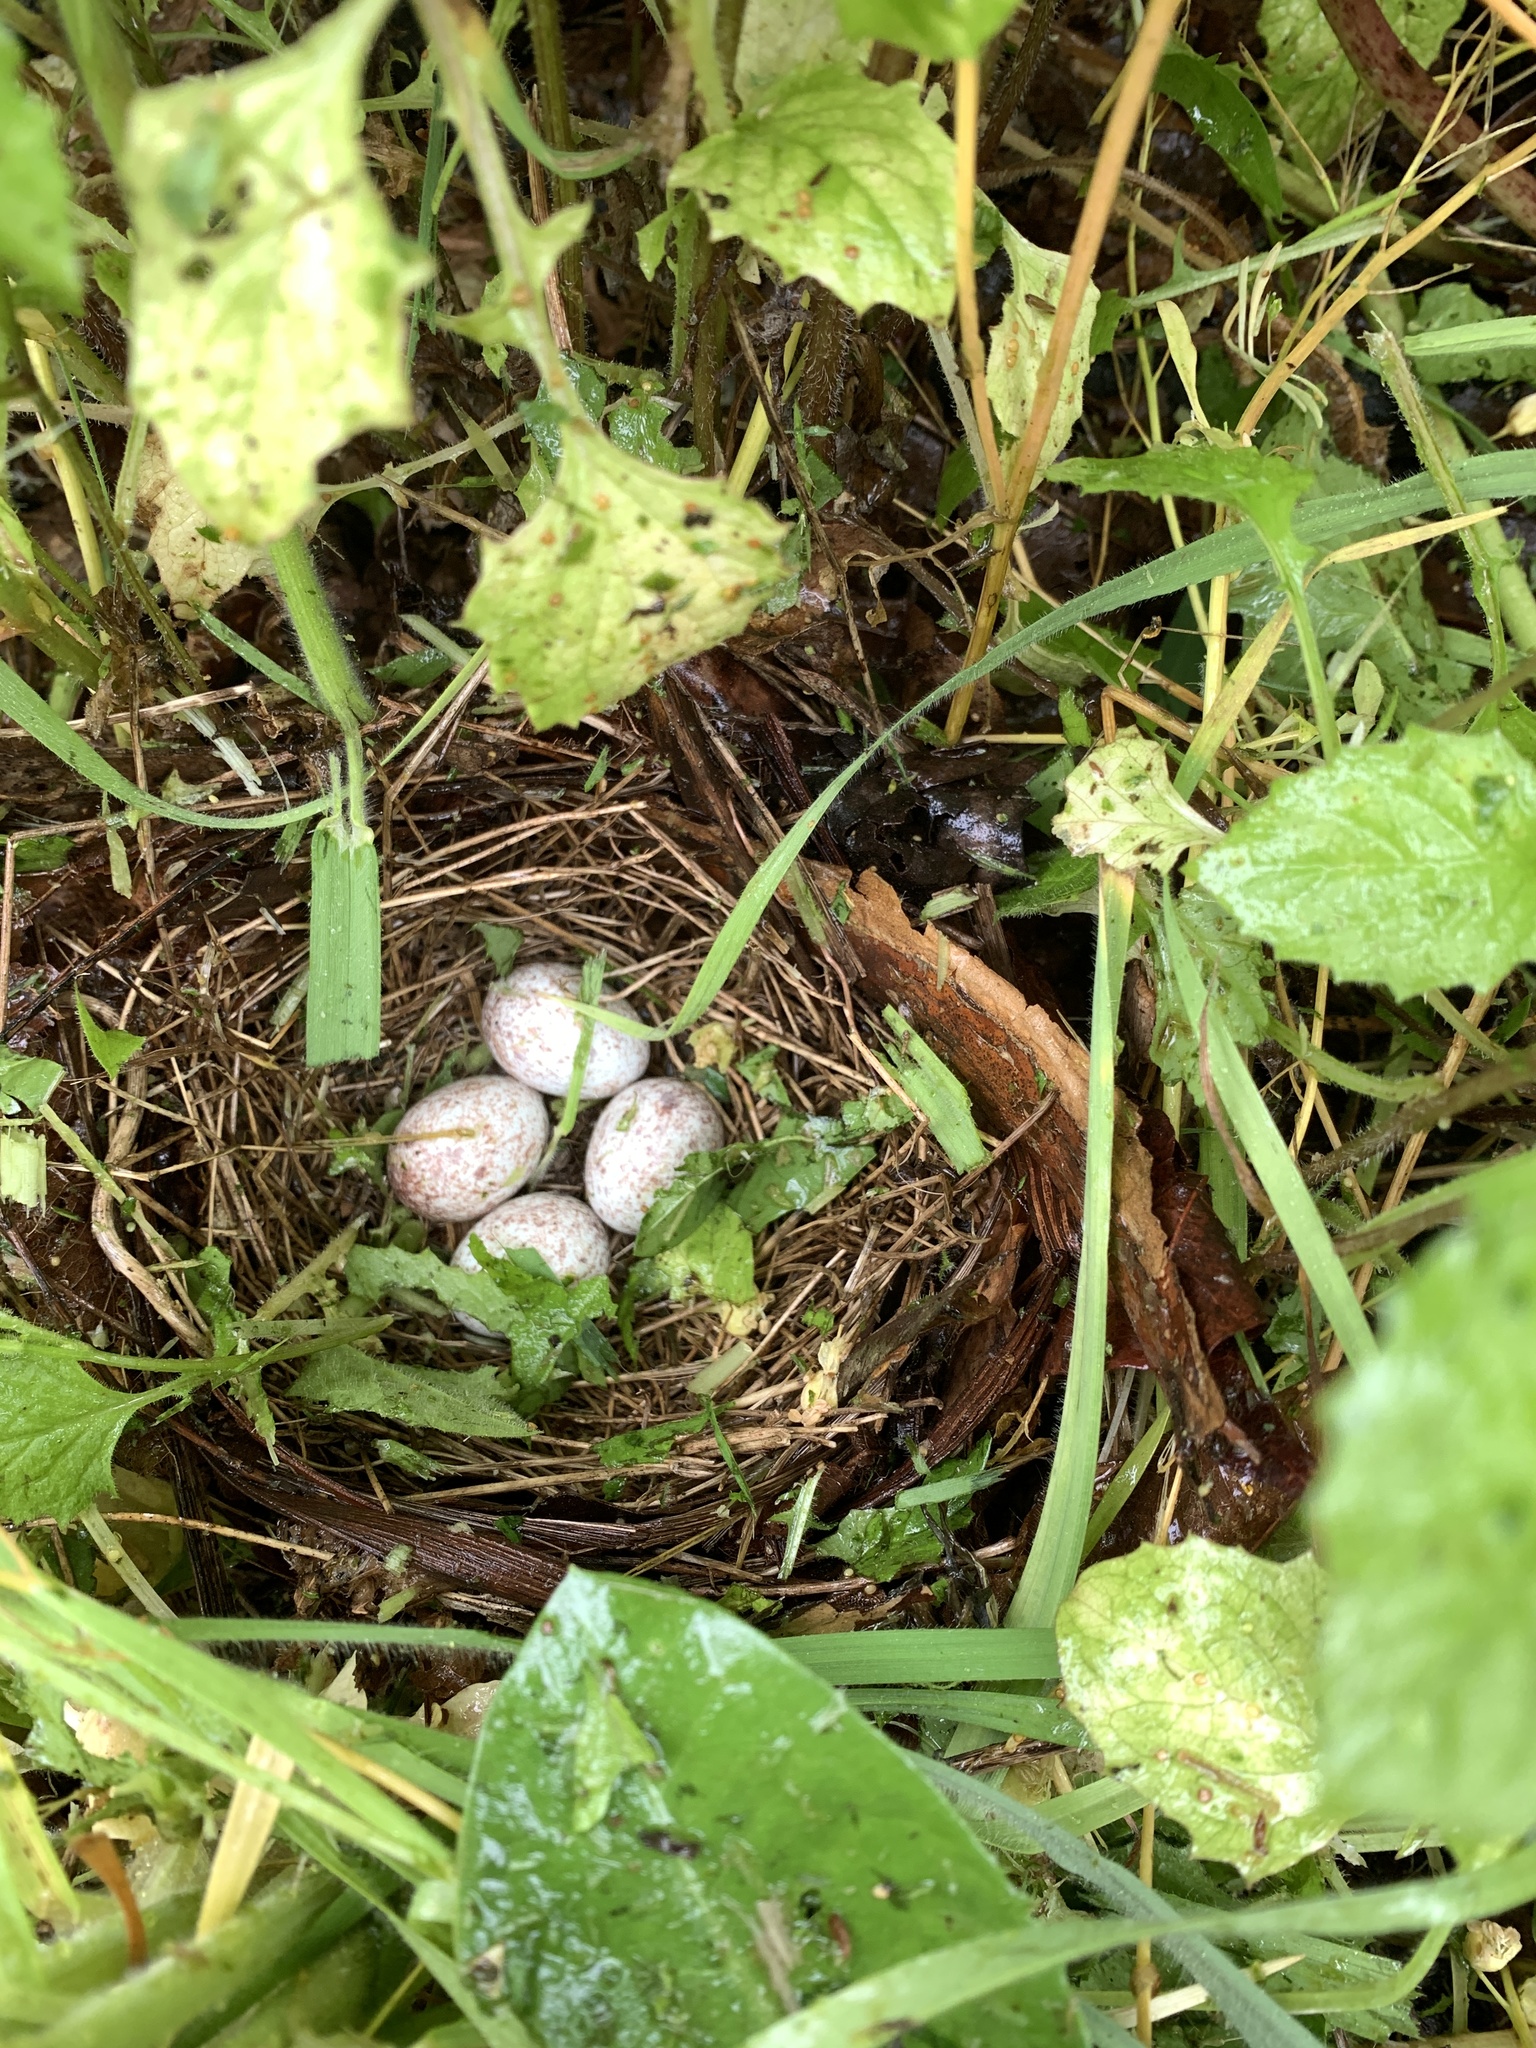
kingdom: Animalia
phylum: Chordata
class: Aves
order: Passeriformes
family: Passerellidae
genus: Pipilo
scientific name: Pipilo maculatus
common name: Spotted towhee
